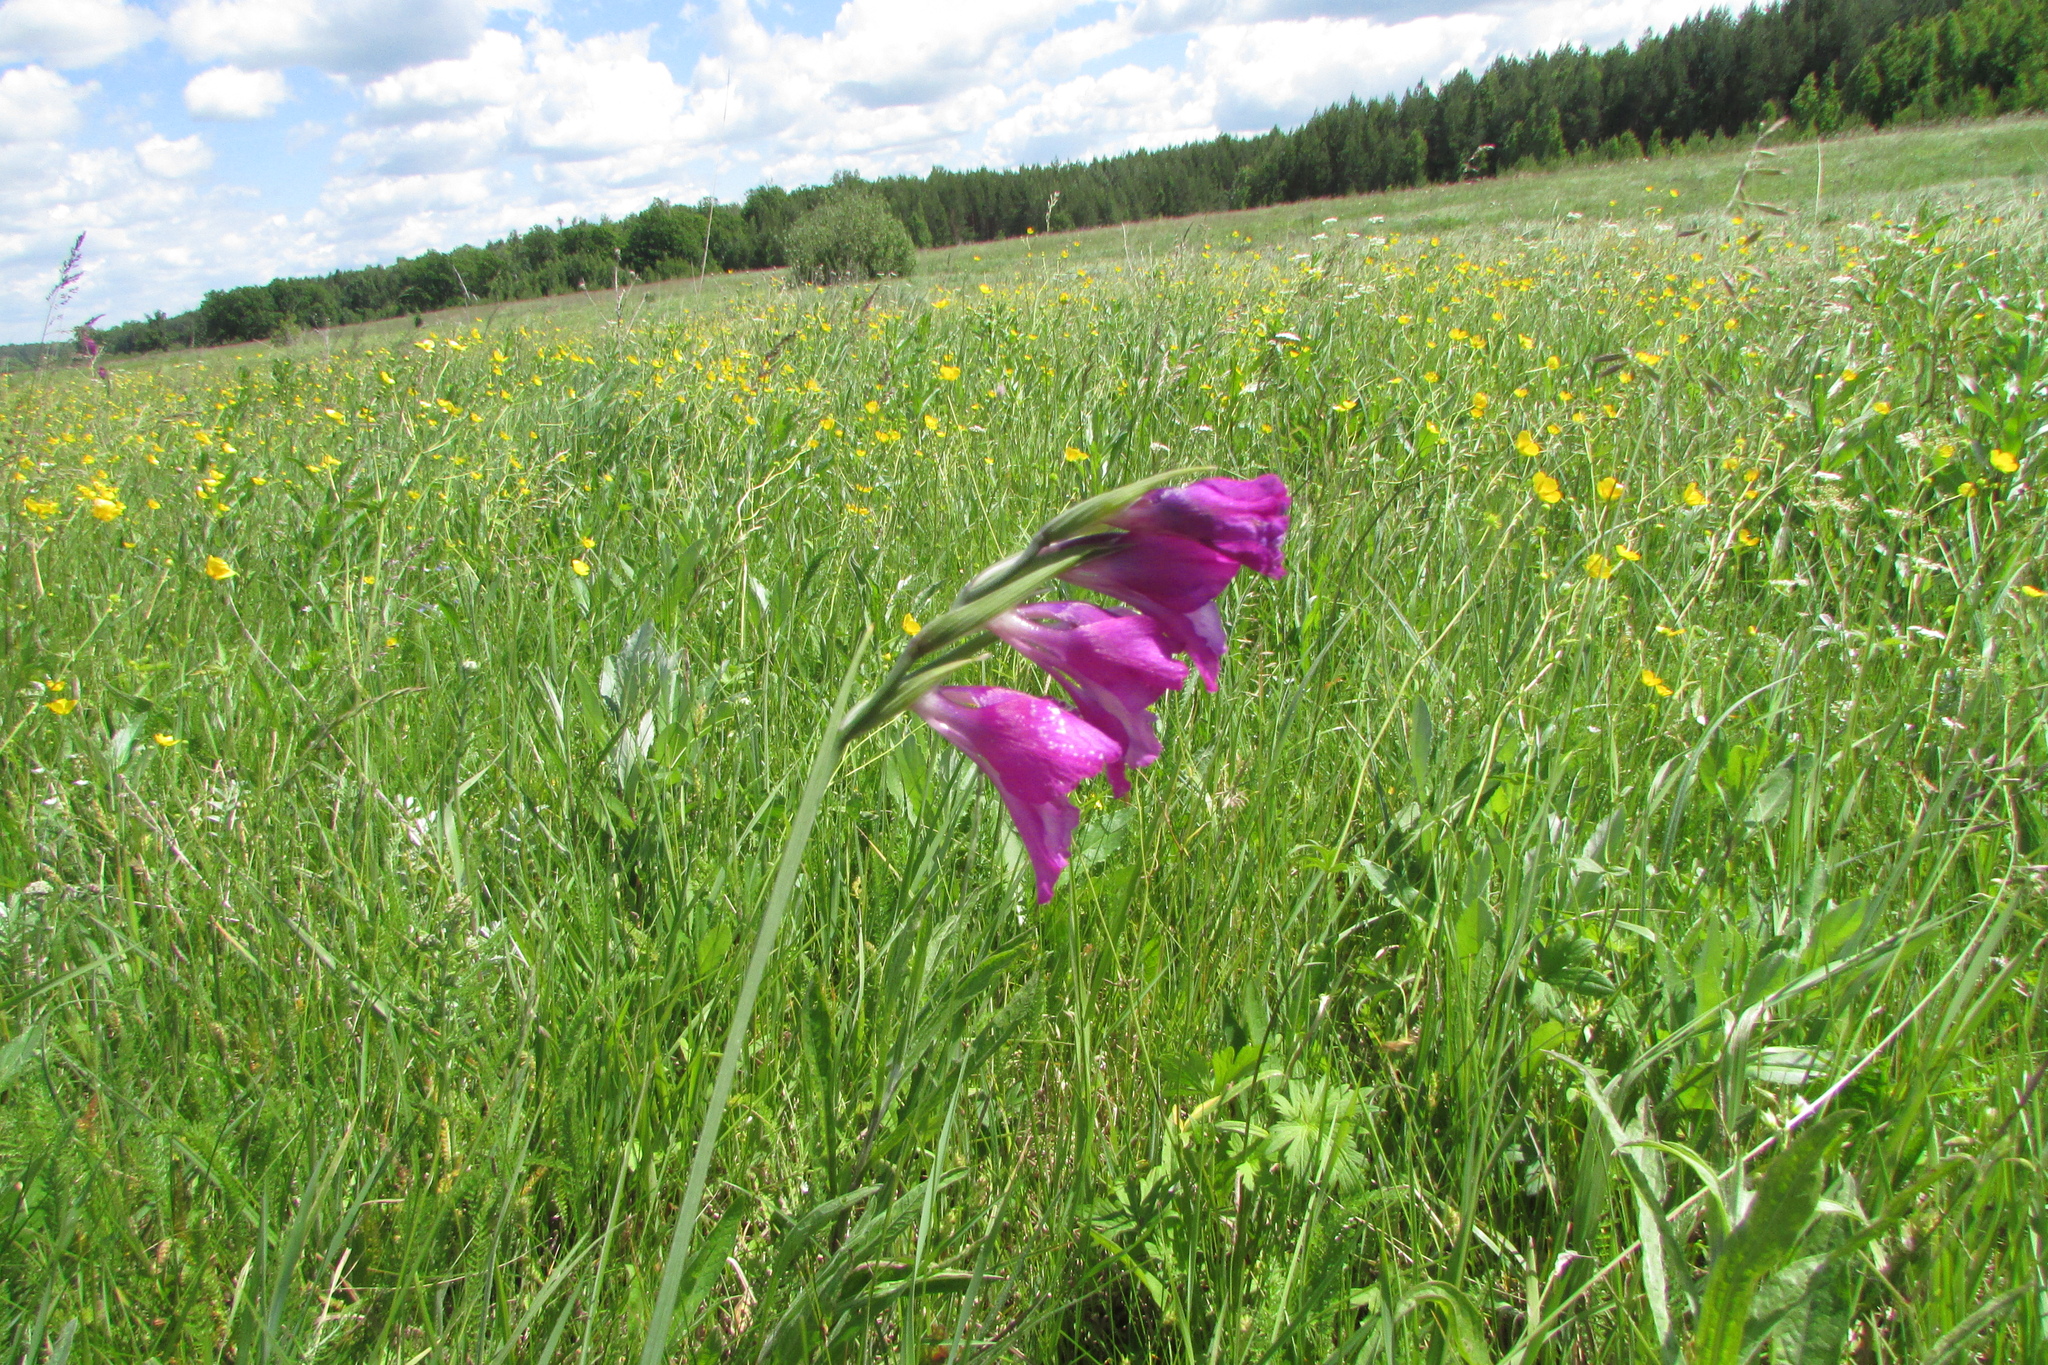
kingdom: Plantae
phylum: Tracheophyta
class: Liliopsida
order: Asparagales
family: Iridaceae
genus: Gladiolus
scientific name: Gladiolus tenuis
